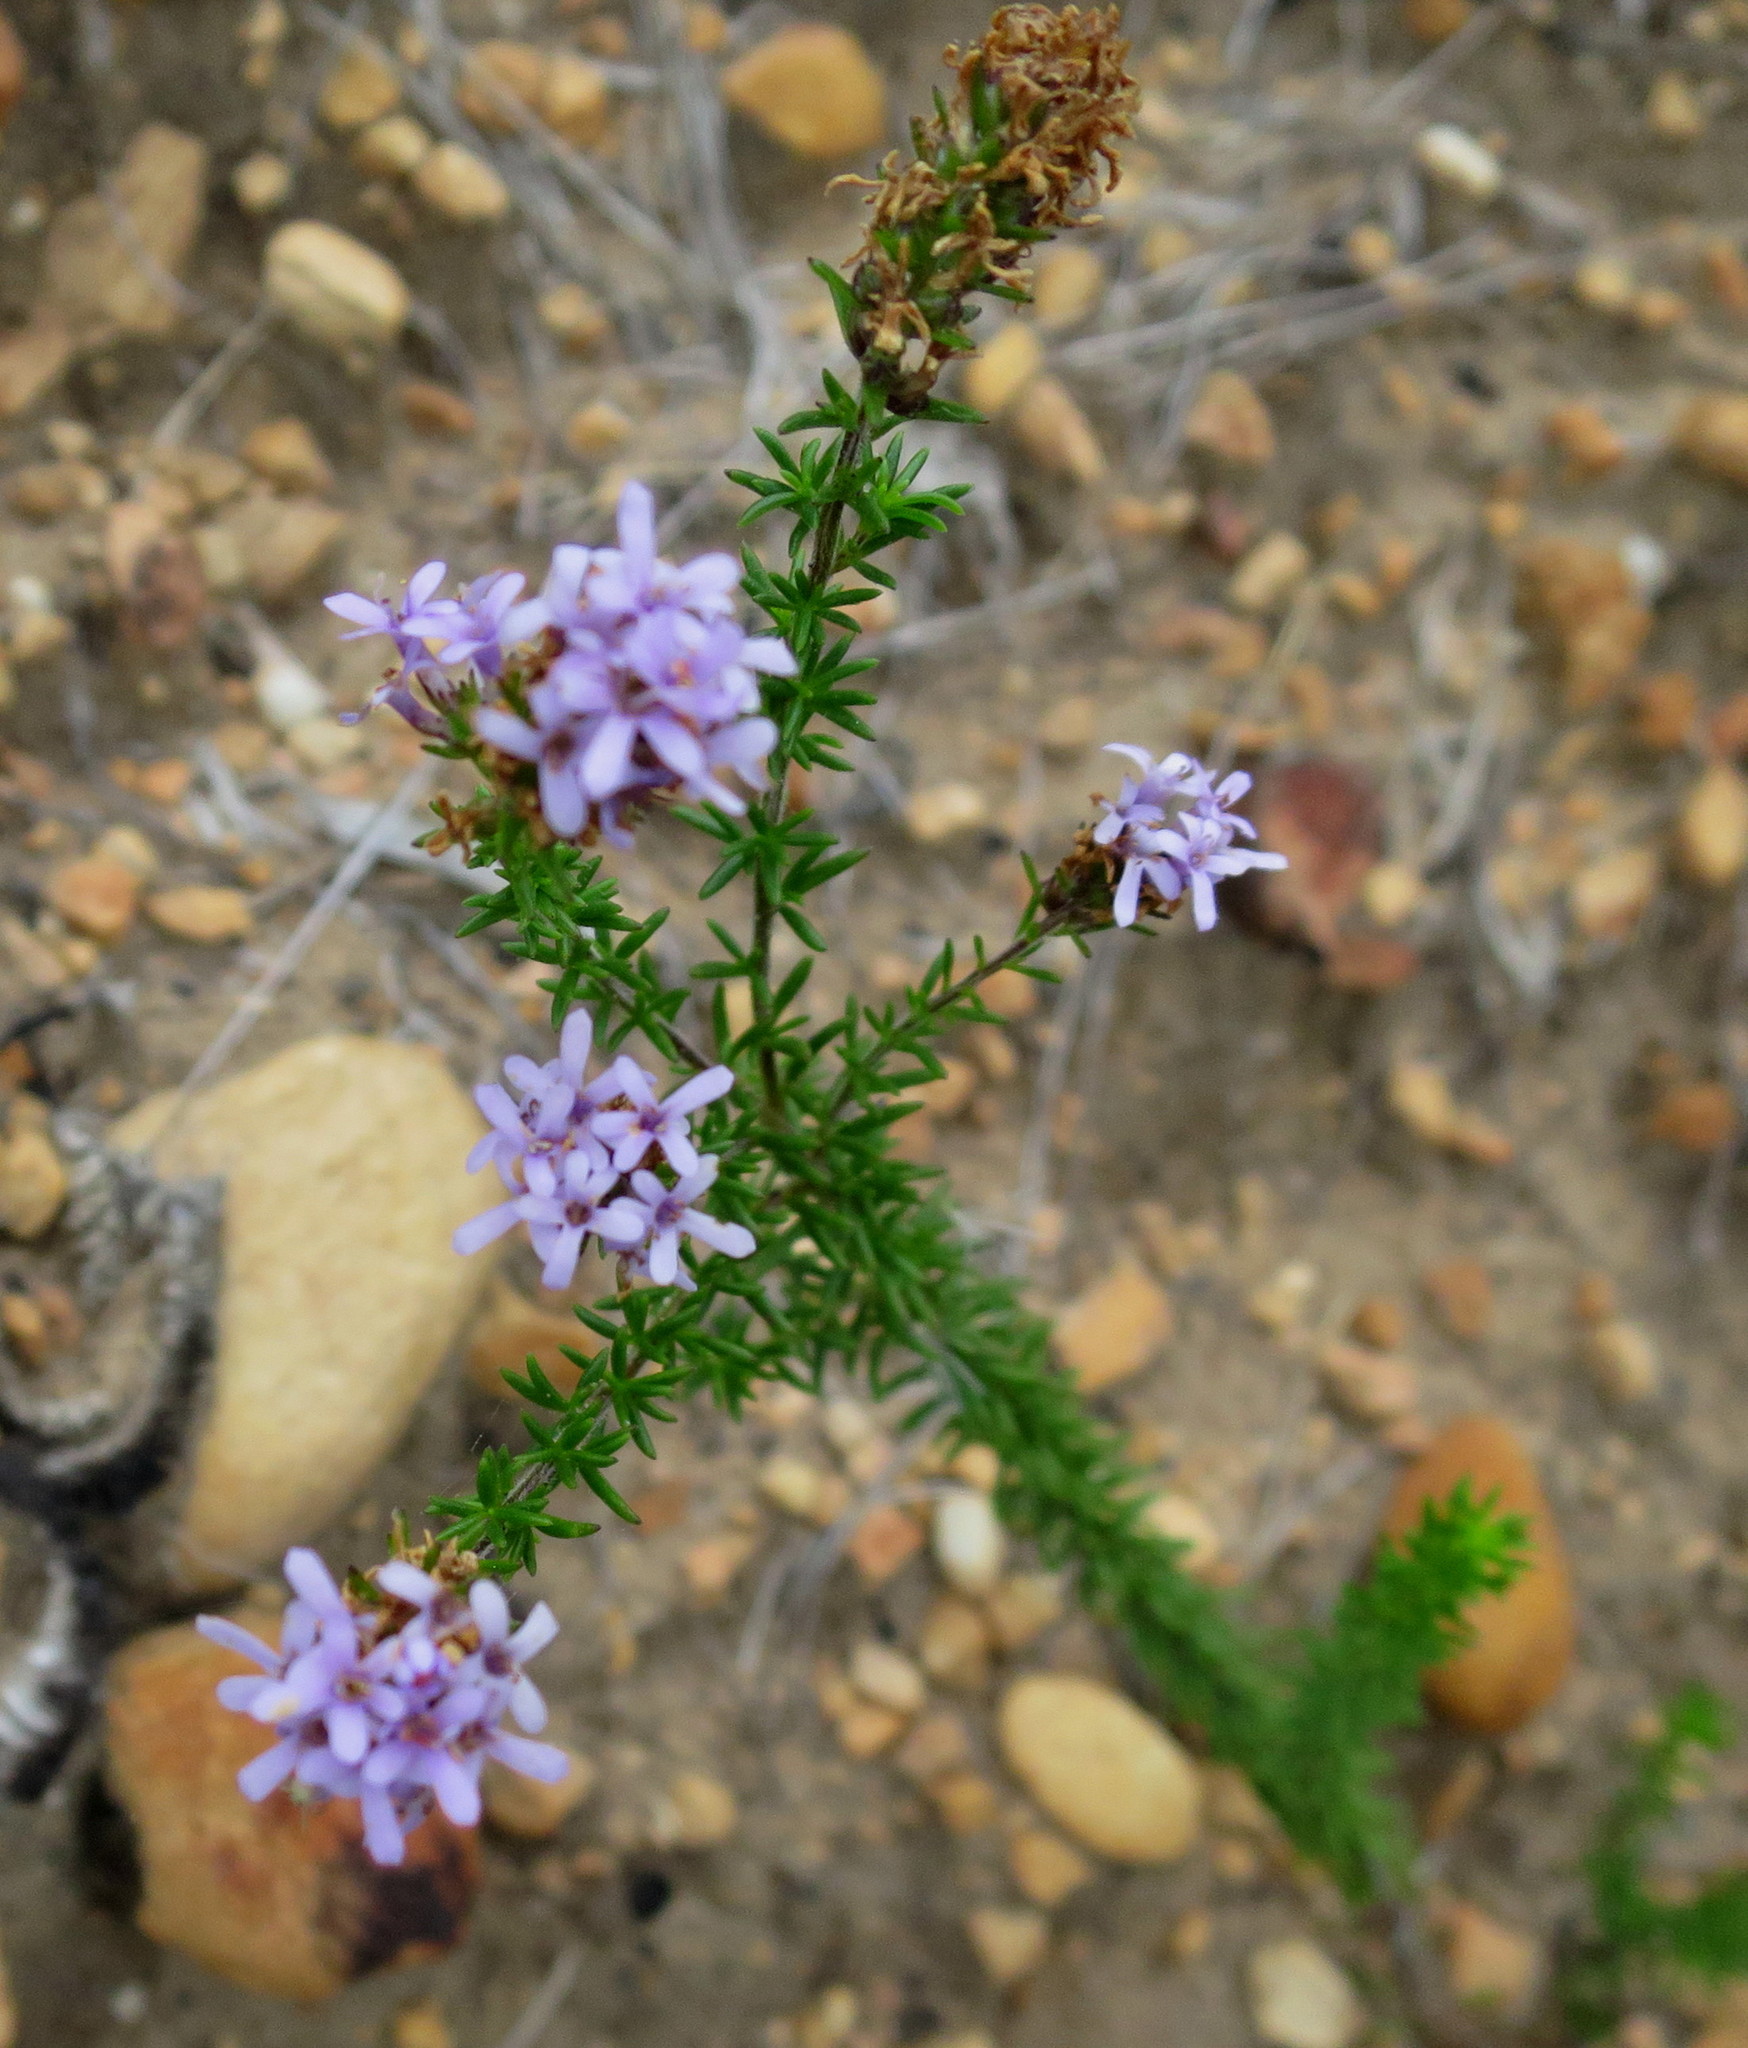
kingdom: Plantae
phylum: Tracheophyta
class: Magnoliopsida
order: Lamiales
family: Scrophulariaceae
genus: Selago
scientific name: Selago burchellii
